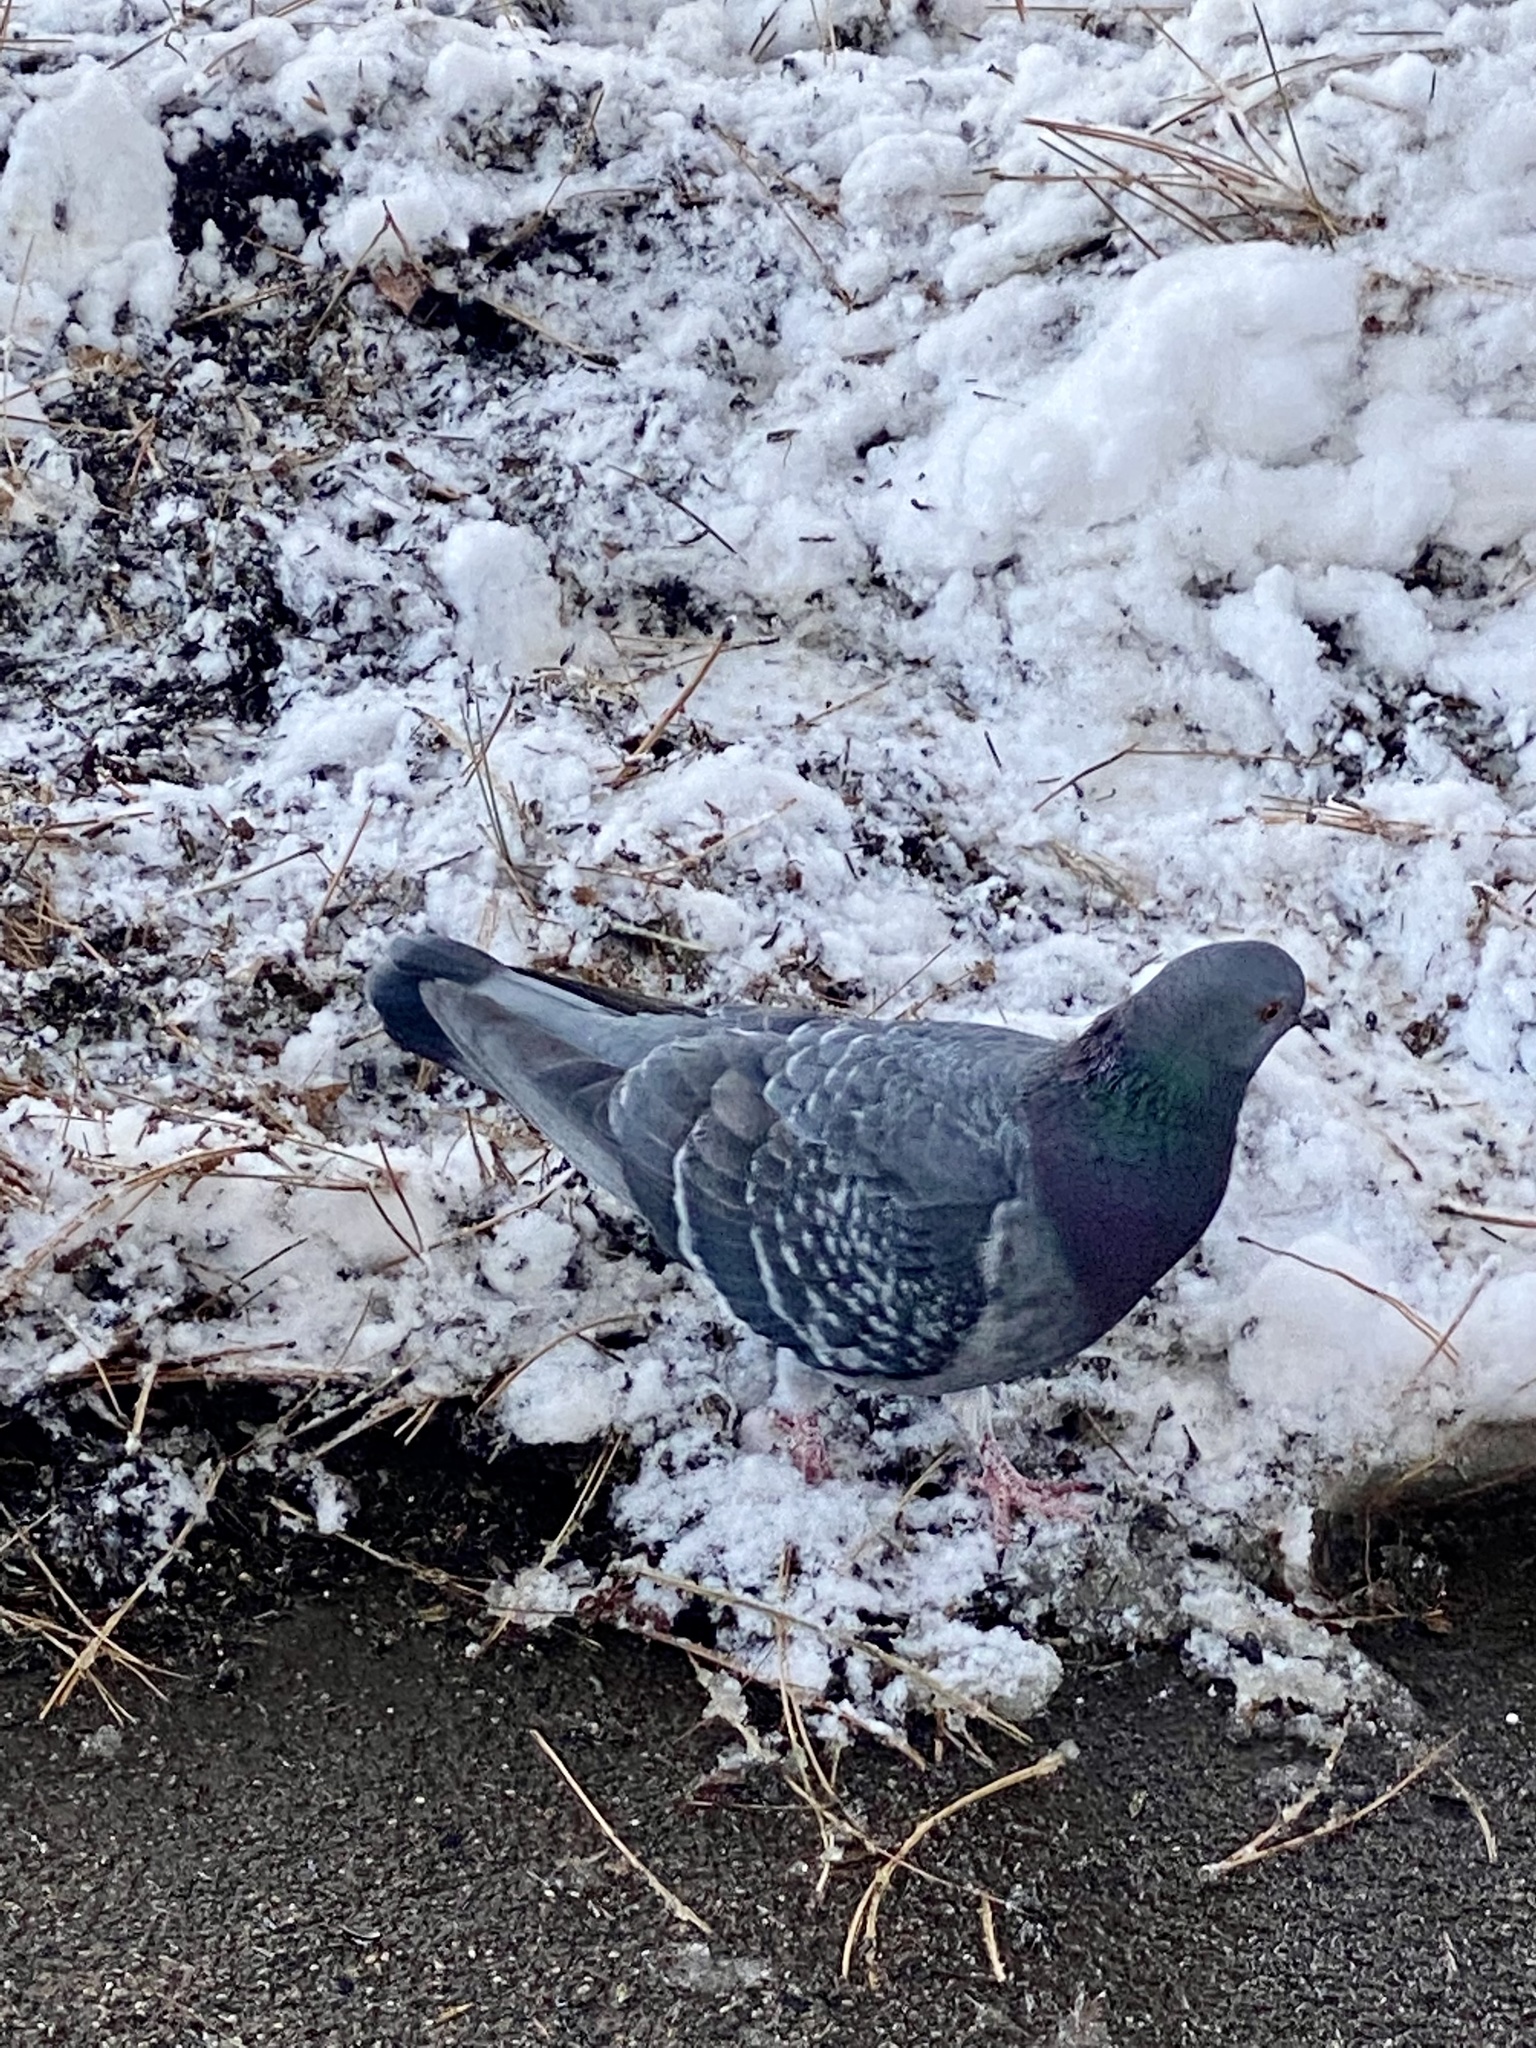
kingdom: Animalia
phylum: Chordata
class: Aves
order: Columbiformes
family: Columbidae
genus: Columba
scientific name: Columba livia
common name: Rock pigeon
